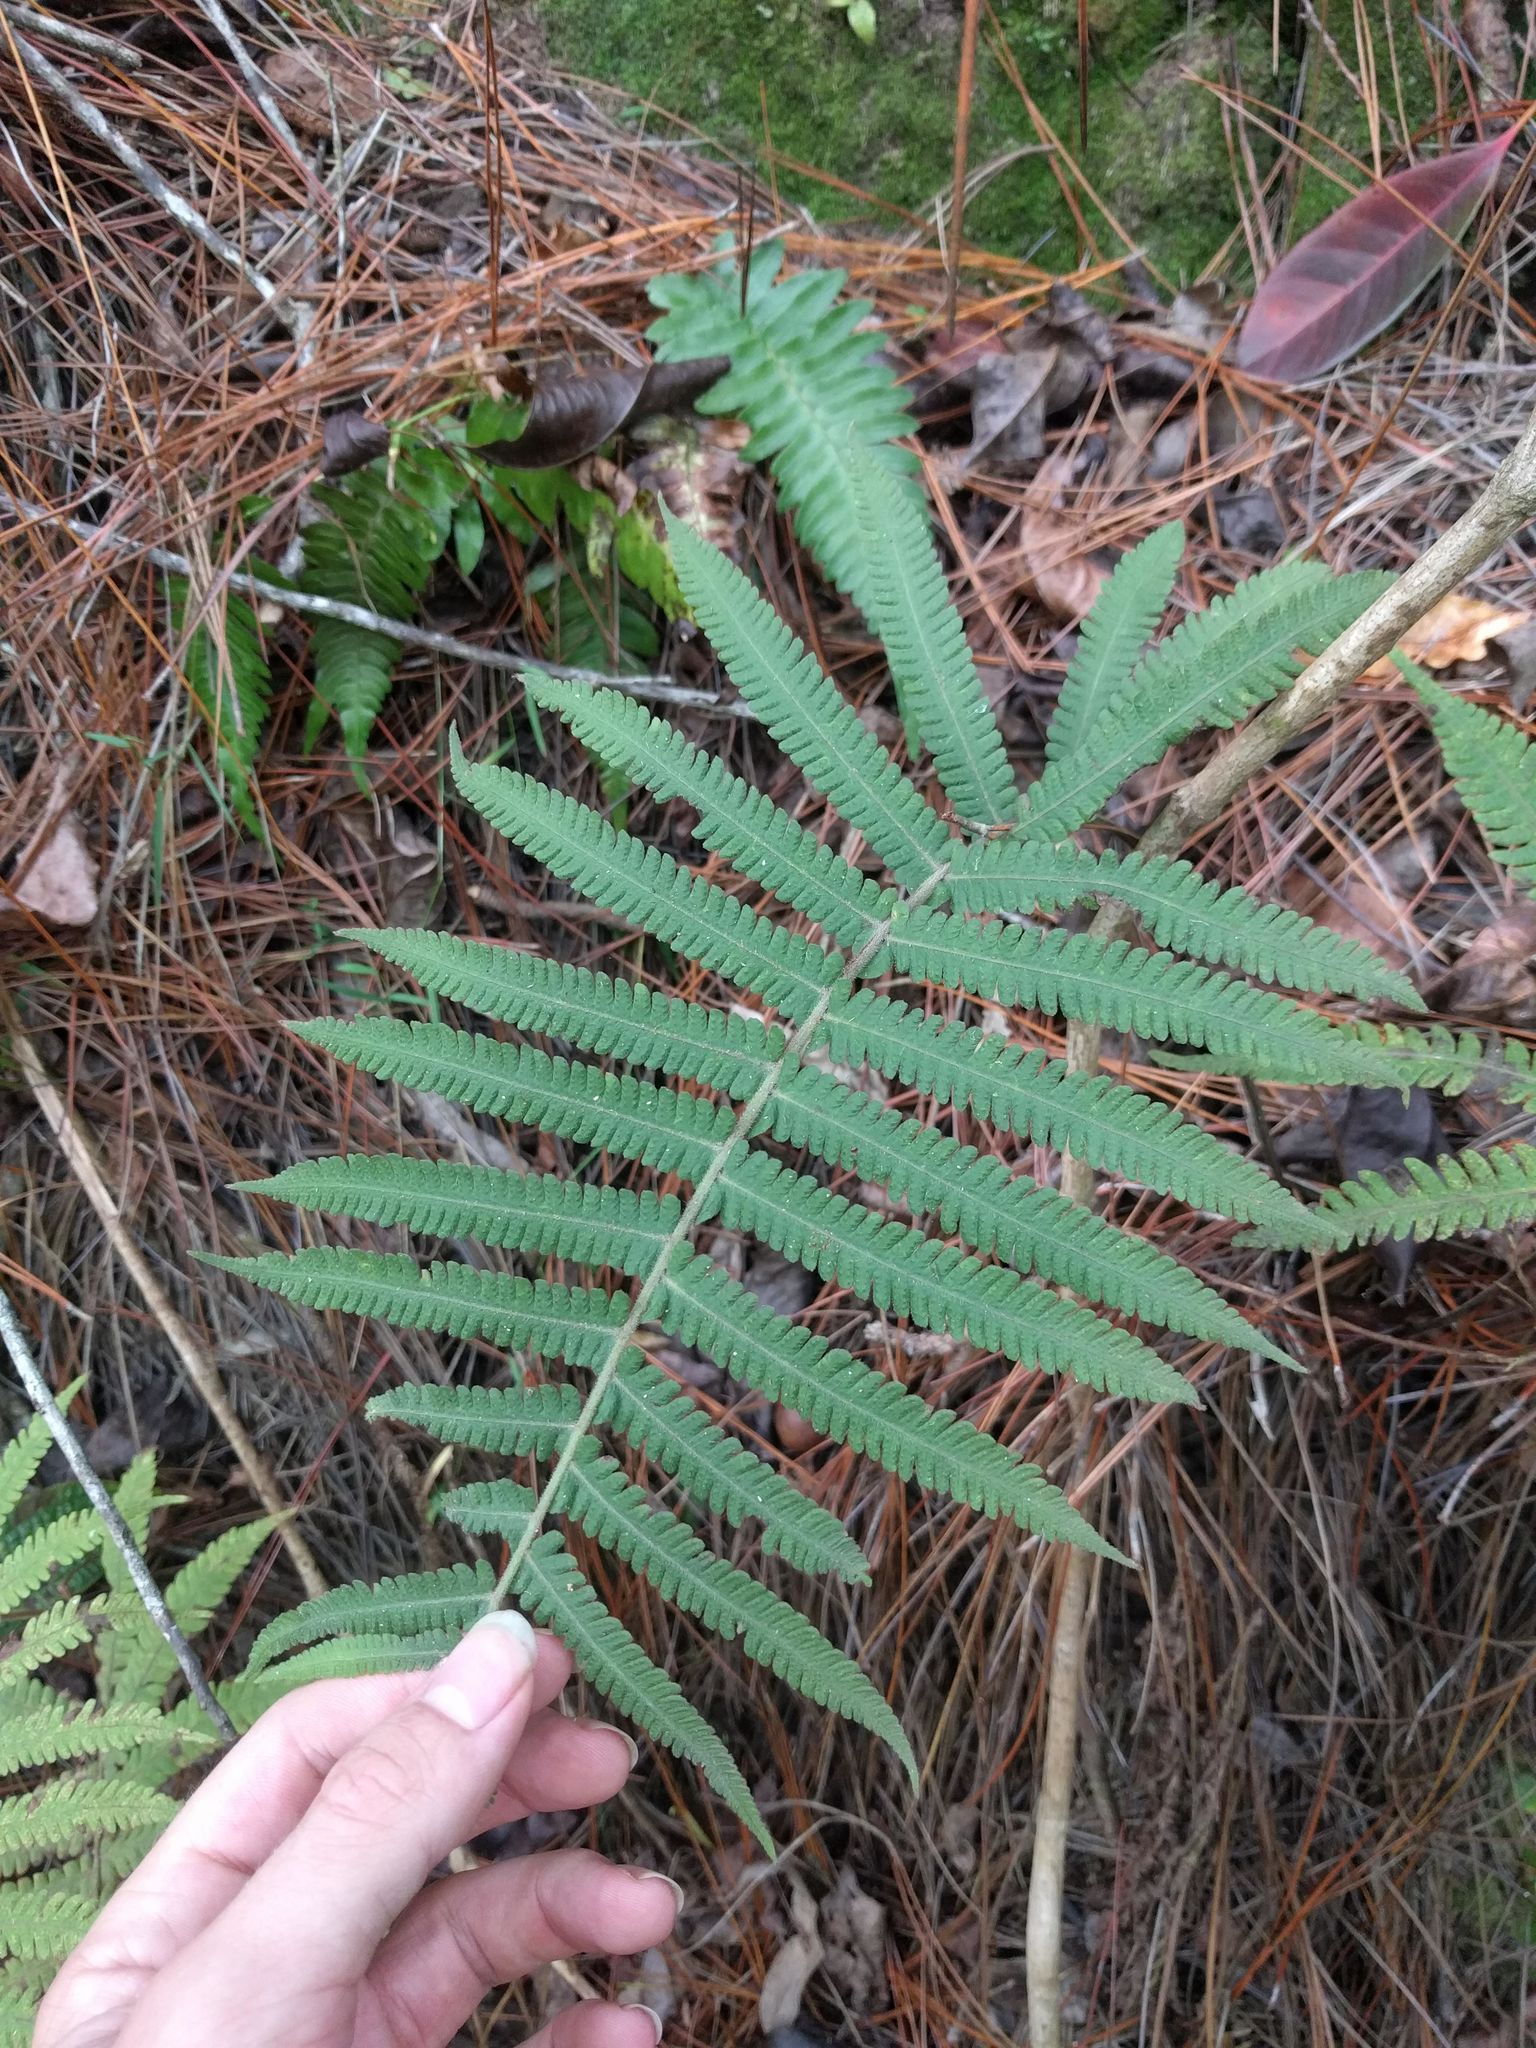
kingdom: Plantae
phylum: Tracheophyta
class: Polypodiopsida
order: Polypodiales
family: Thelypteridaceae
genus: Christella
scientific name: Christella parasitica
